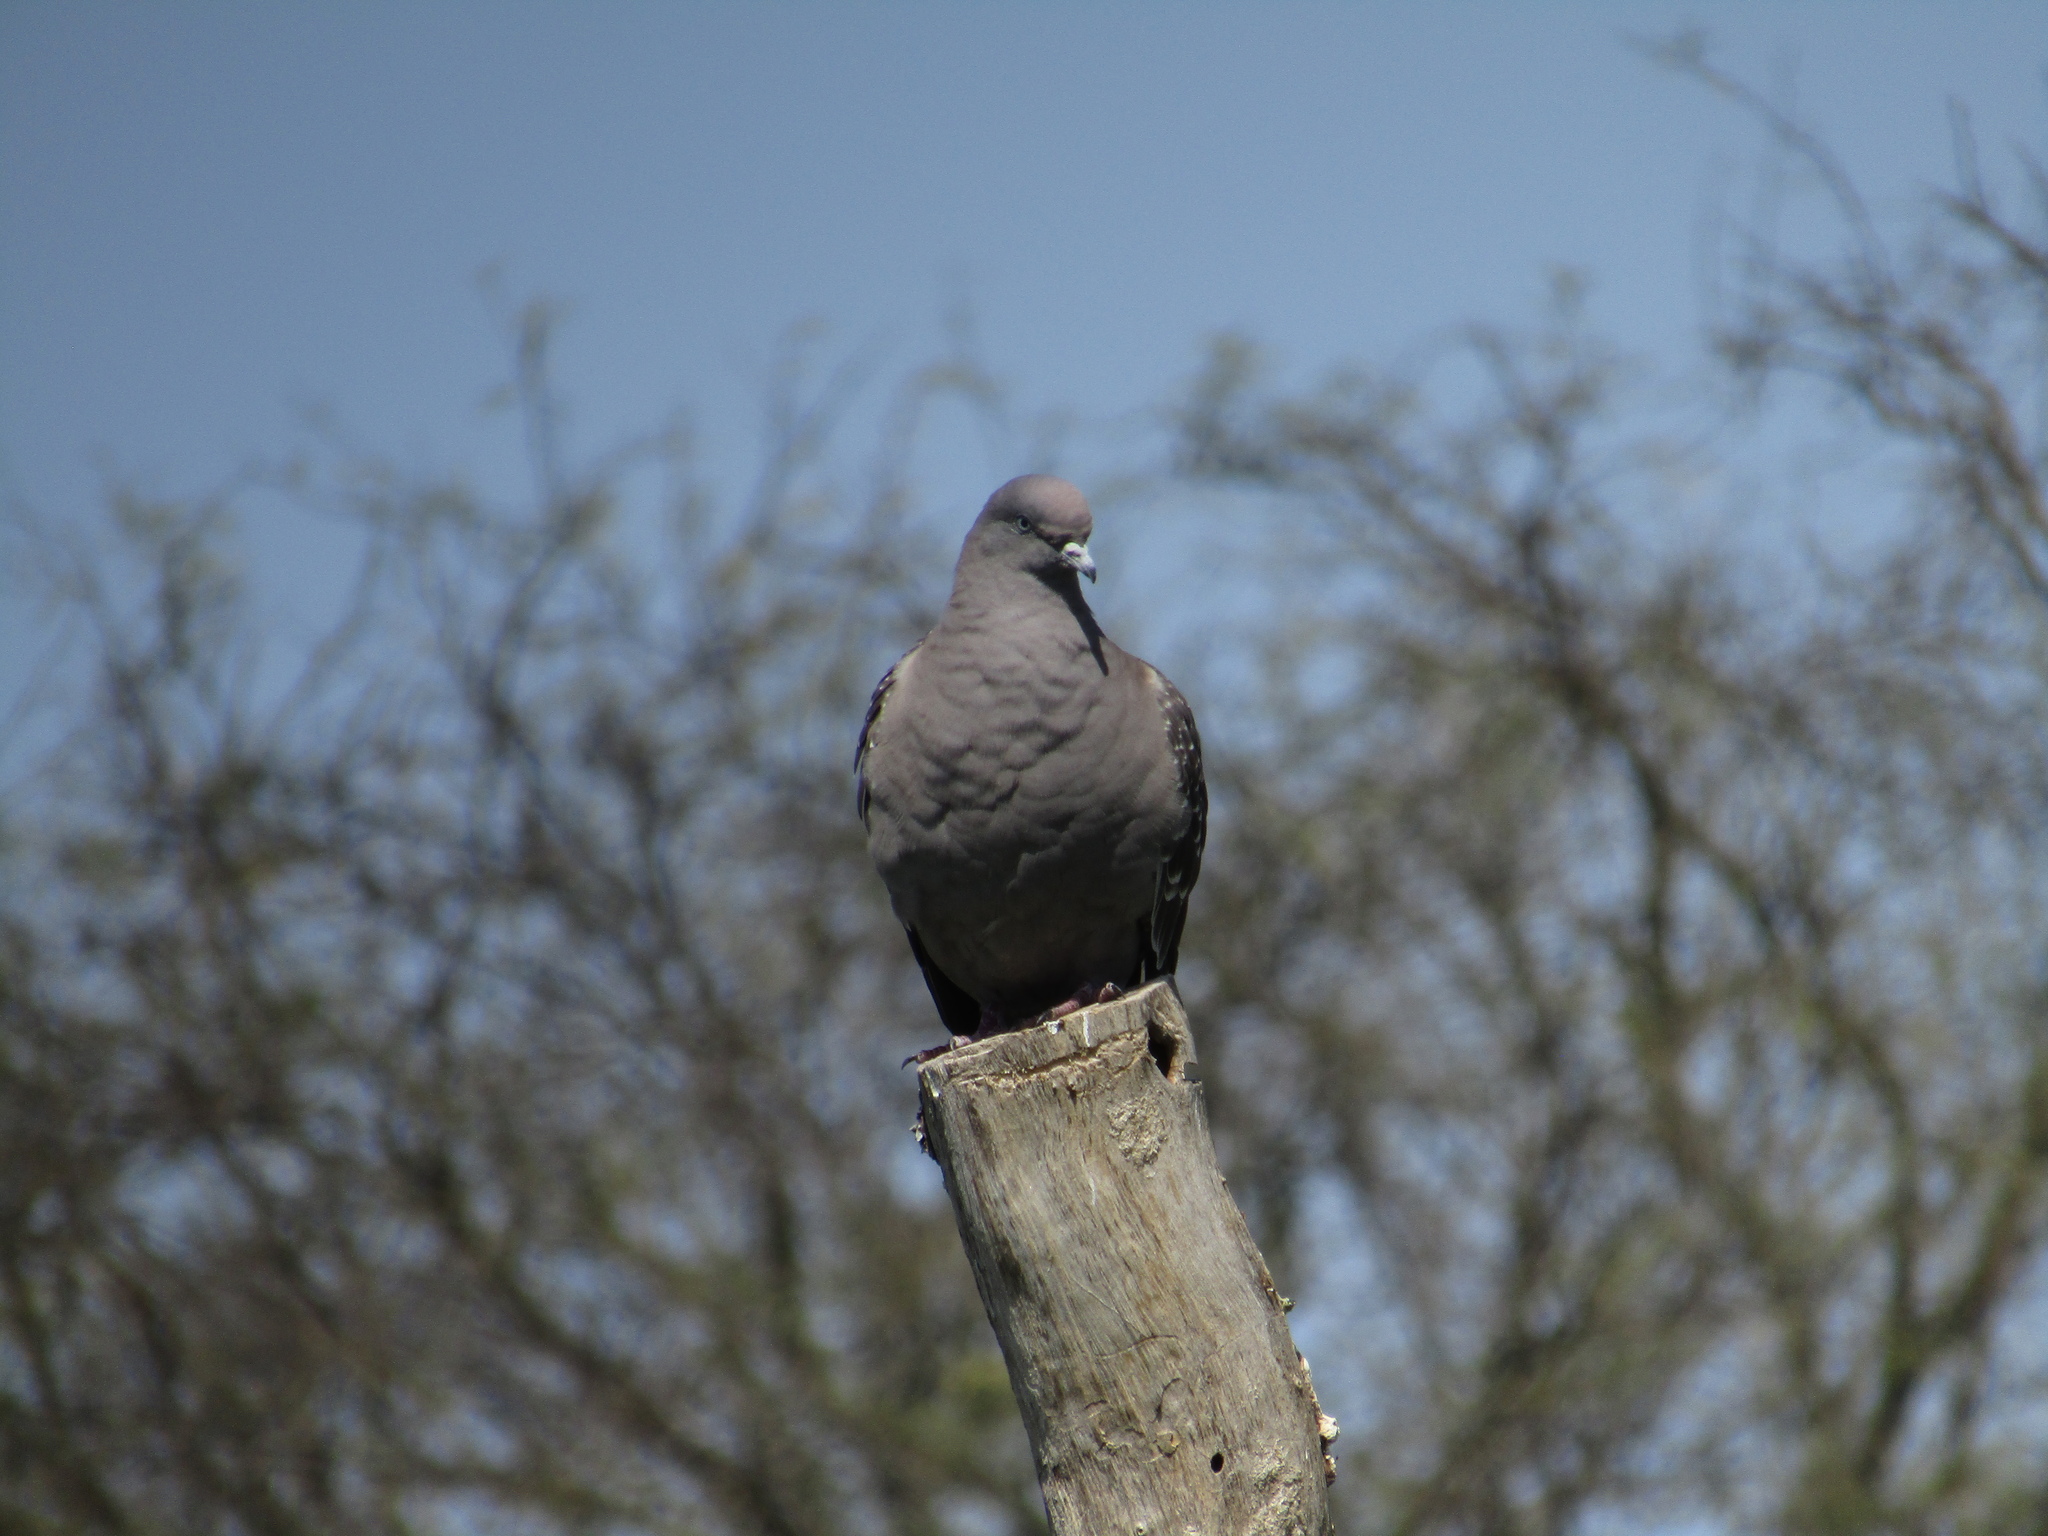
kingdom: Animalia
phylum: Chordata
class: Aves
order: Columbiformes
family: Columbidae
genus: Patagioenas
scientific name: Patagioenas maculosa
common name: Spot-winged pigeon
